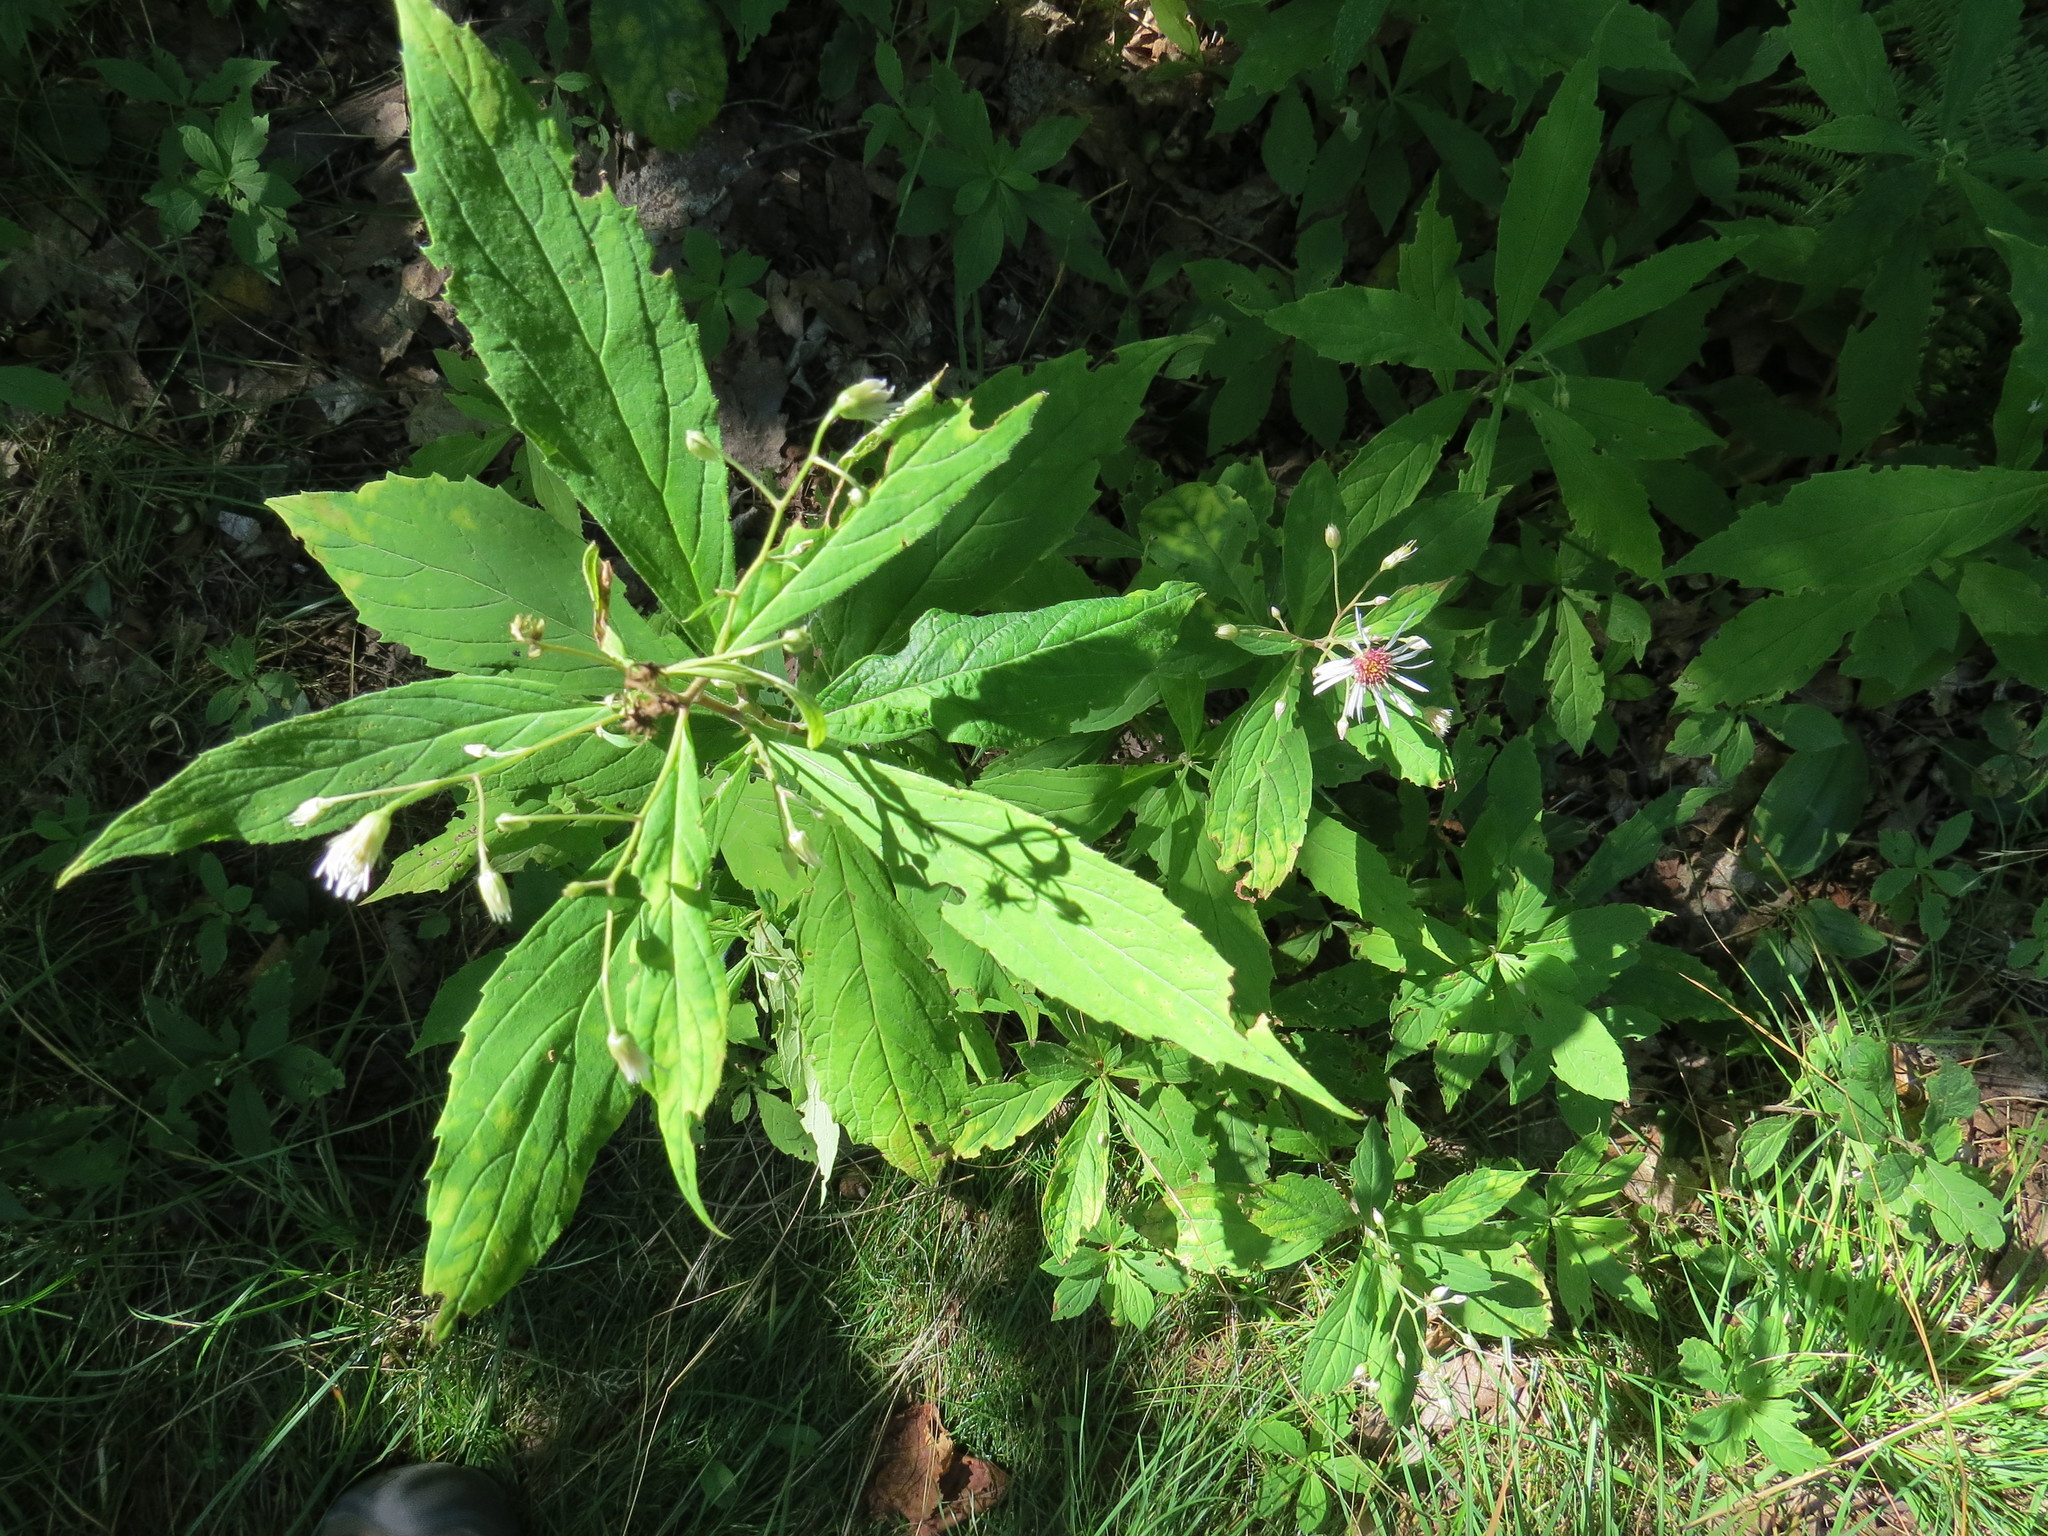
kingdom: Plantae
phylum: Tracheophyta
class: Magnoliopsida
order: Asterales
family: Asteraceae
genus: Oclemena
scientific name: Oclemena acuminata
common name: Mountain aster
